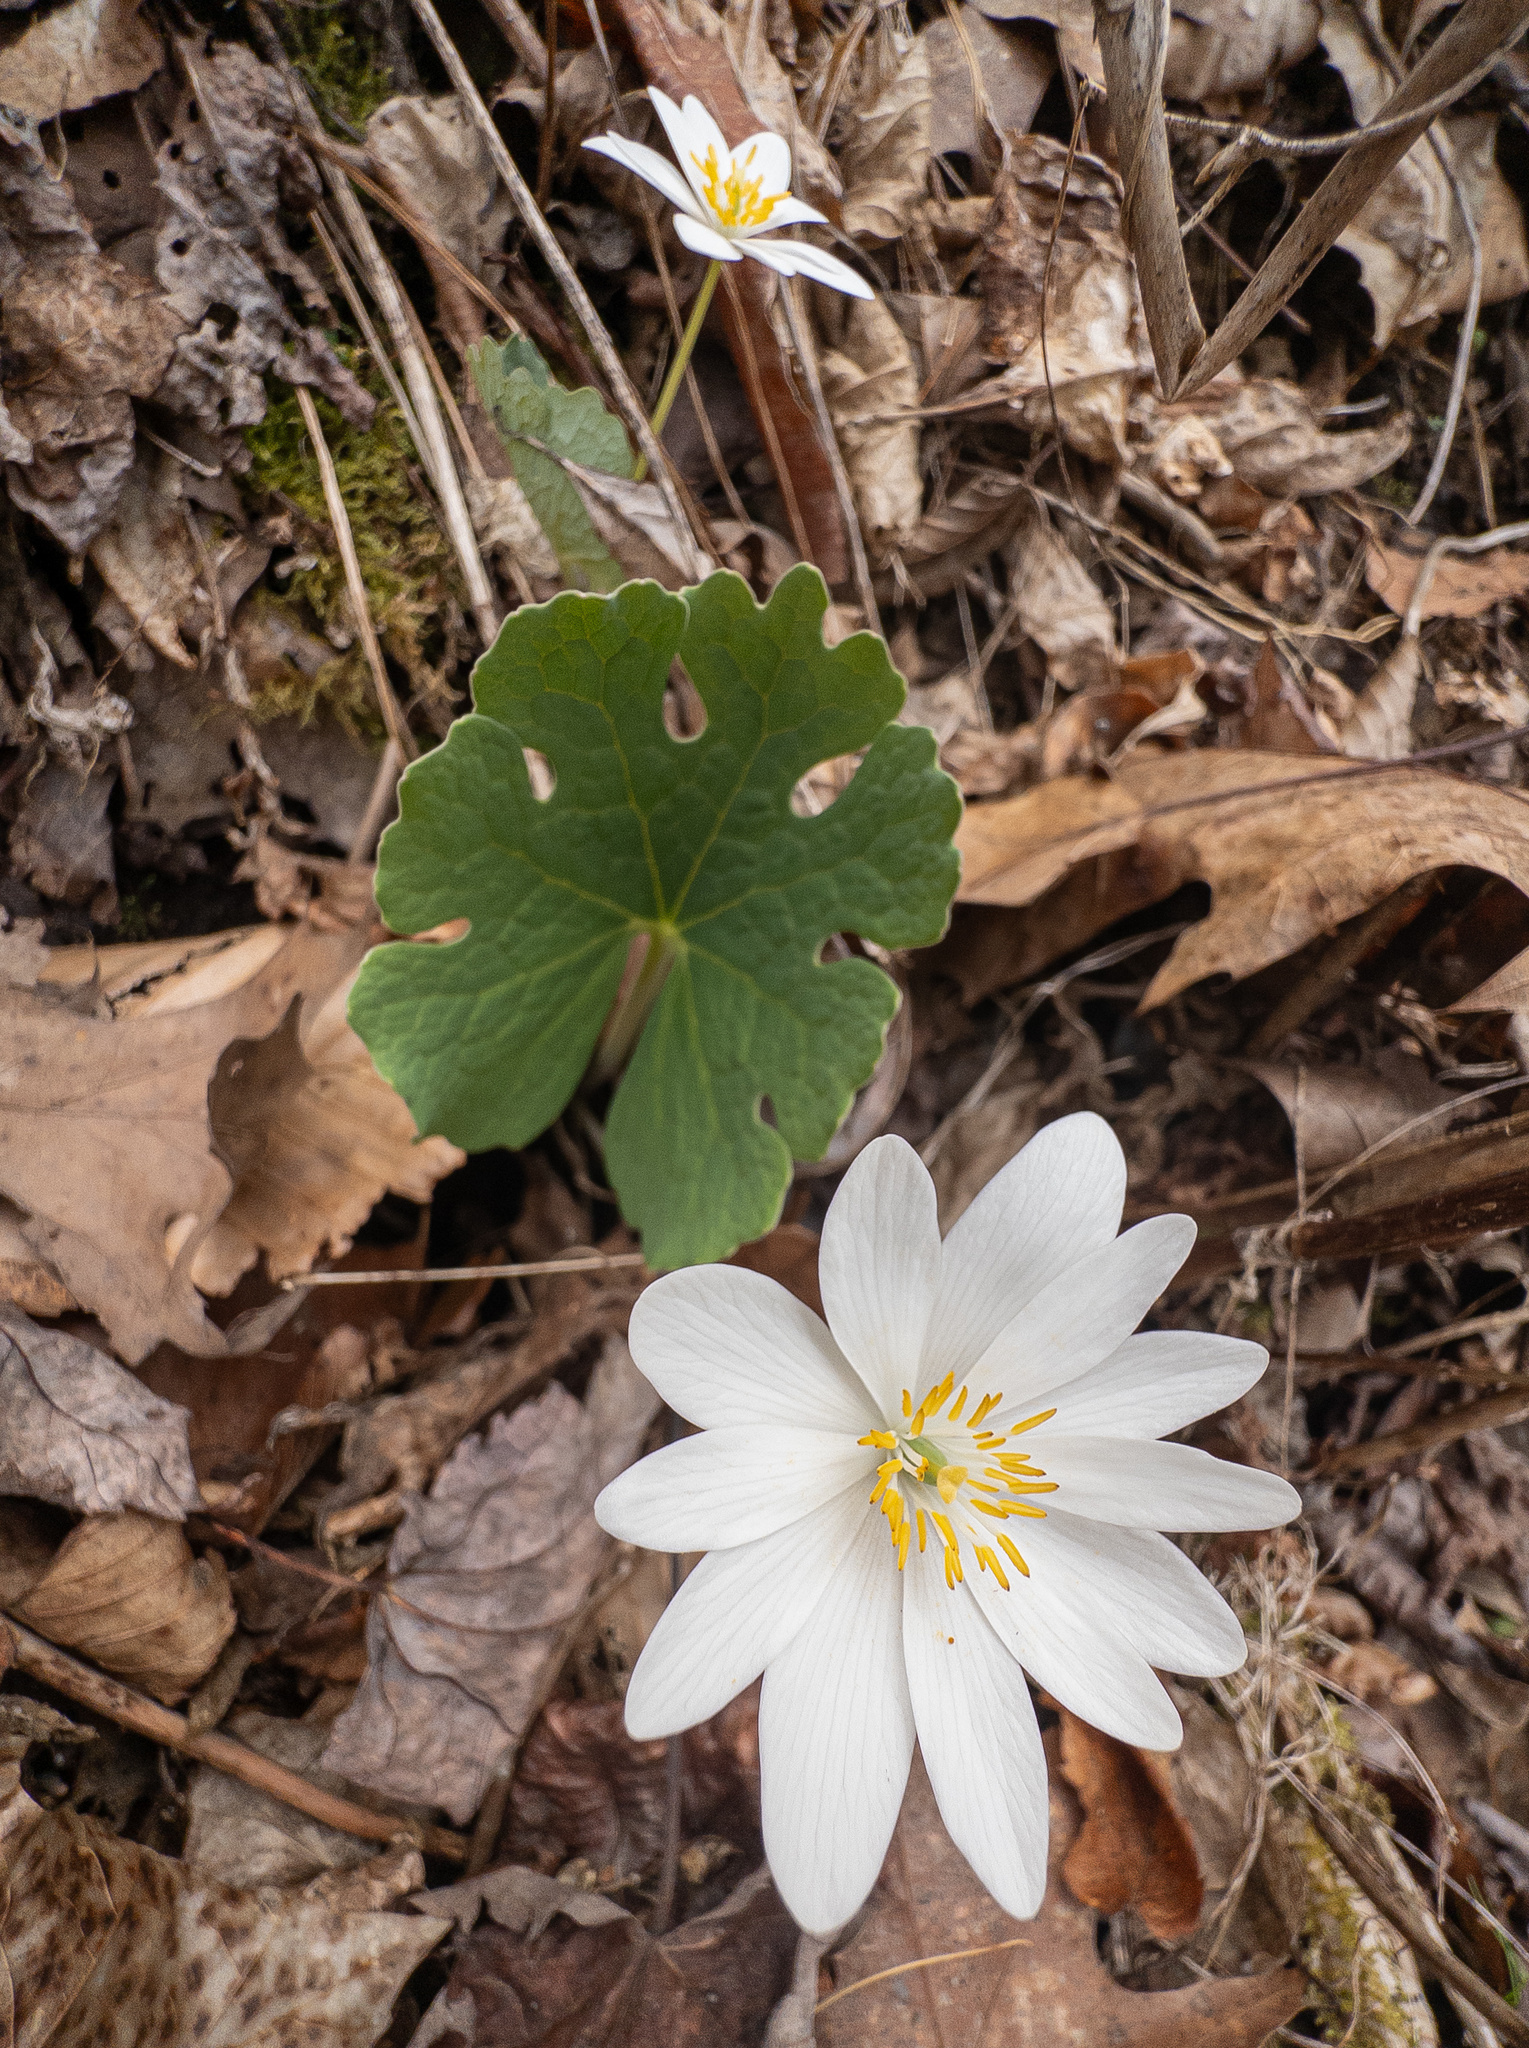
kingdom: Plantae
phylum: Tracheophyta
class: Magnoliopsida
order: Ranunculales
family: Papaveraceae
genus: Sanguinaria
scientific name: Sanguinaria canadensis
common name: Bloodroot
